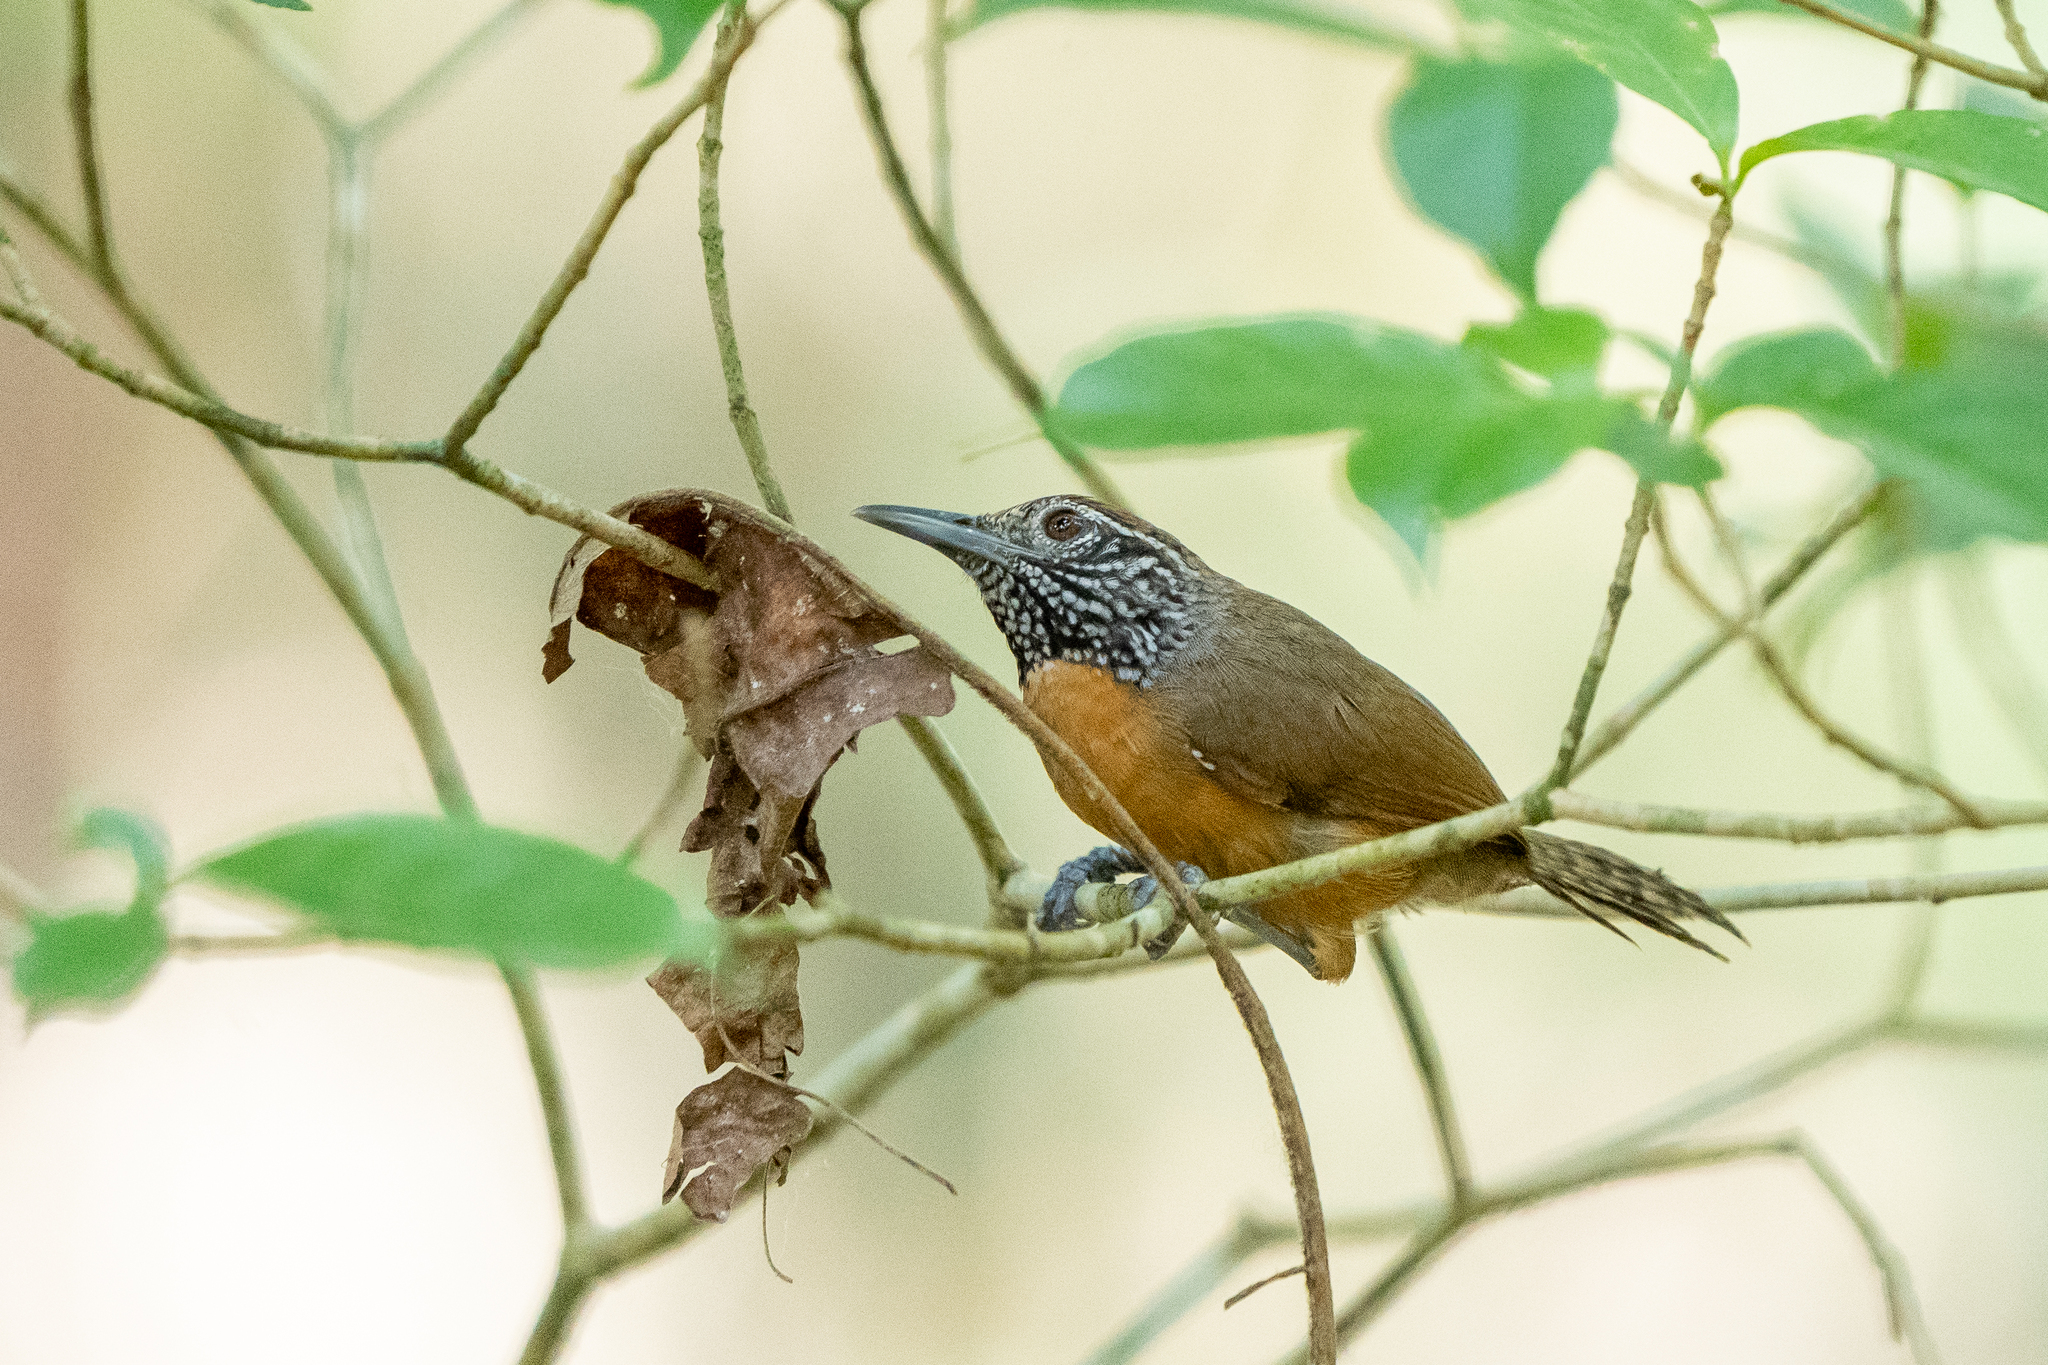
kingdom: Animalia
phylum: Chordata
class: Aves
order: Passeriformes
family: Troglodytidae
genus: Pheugopedius
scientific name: Pheugopedius rutilus
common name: Rufous-breasted wren
